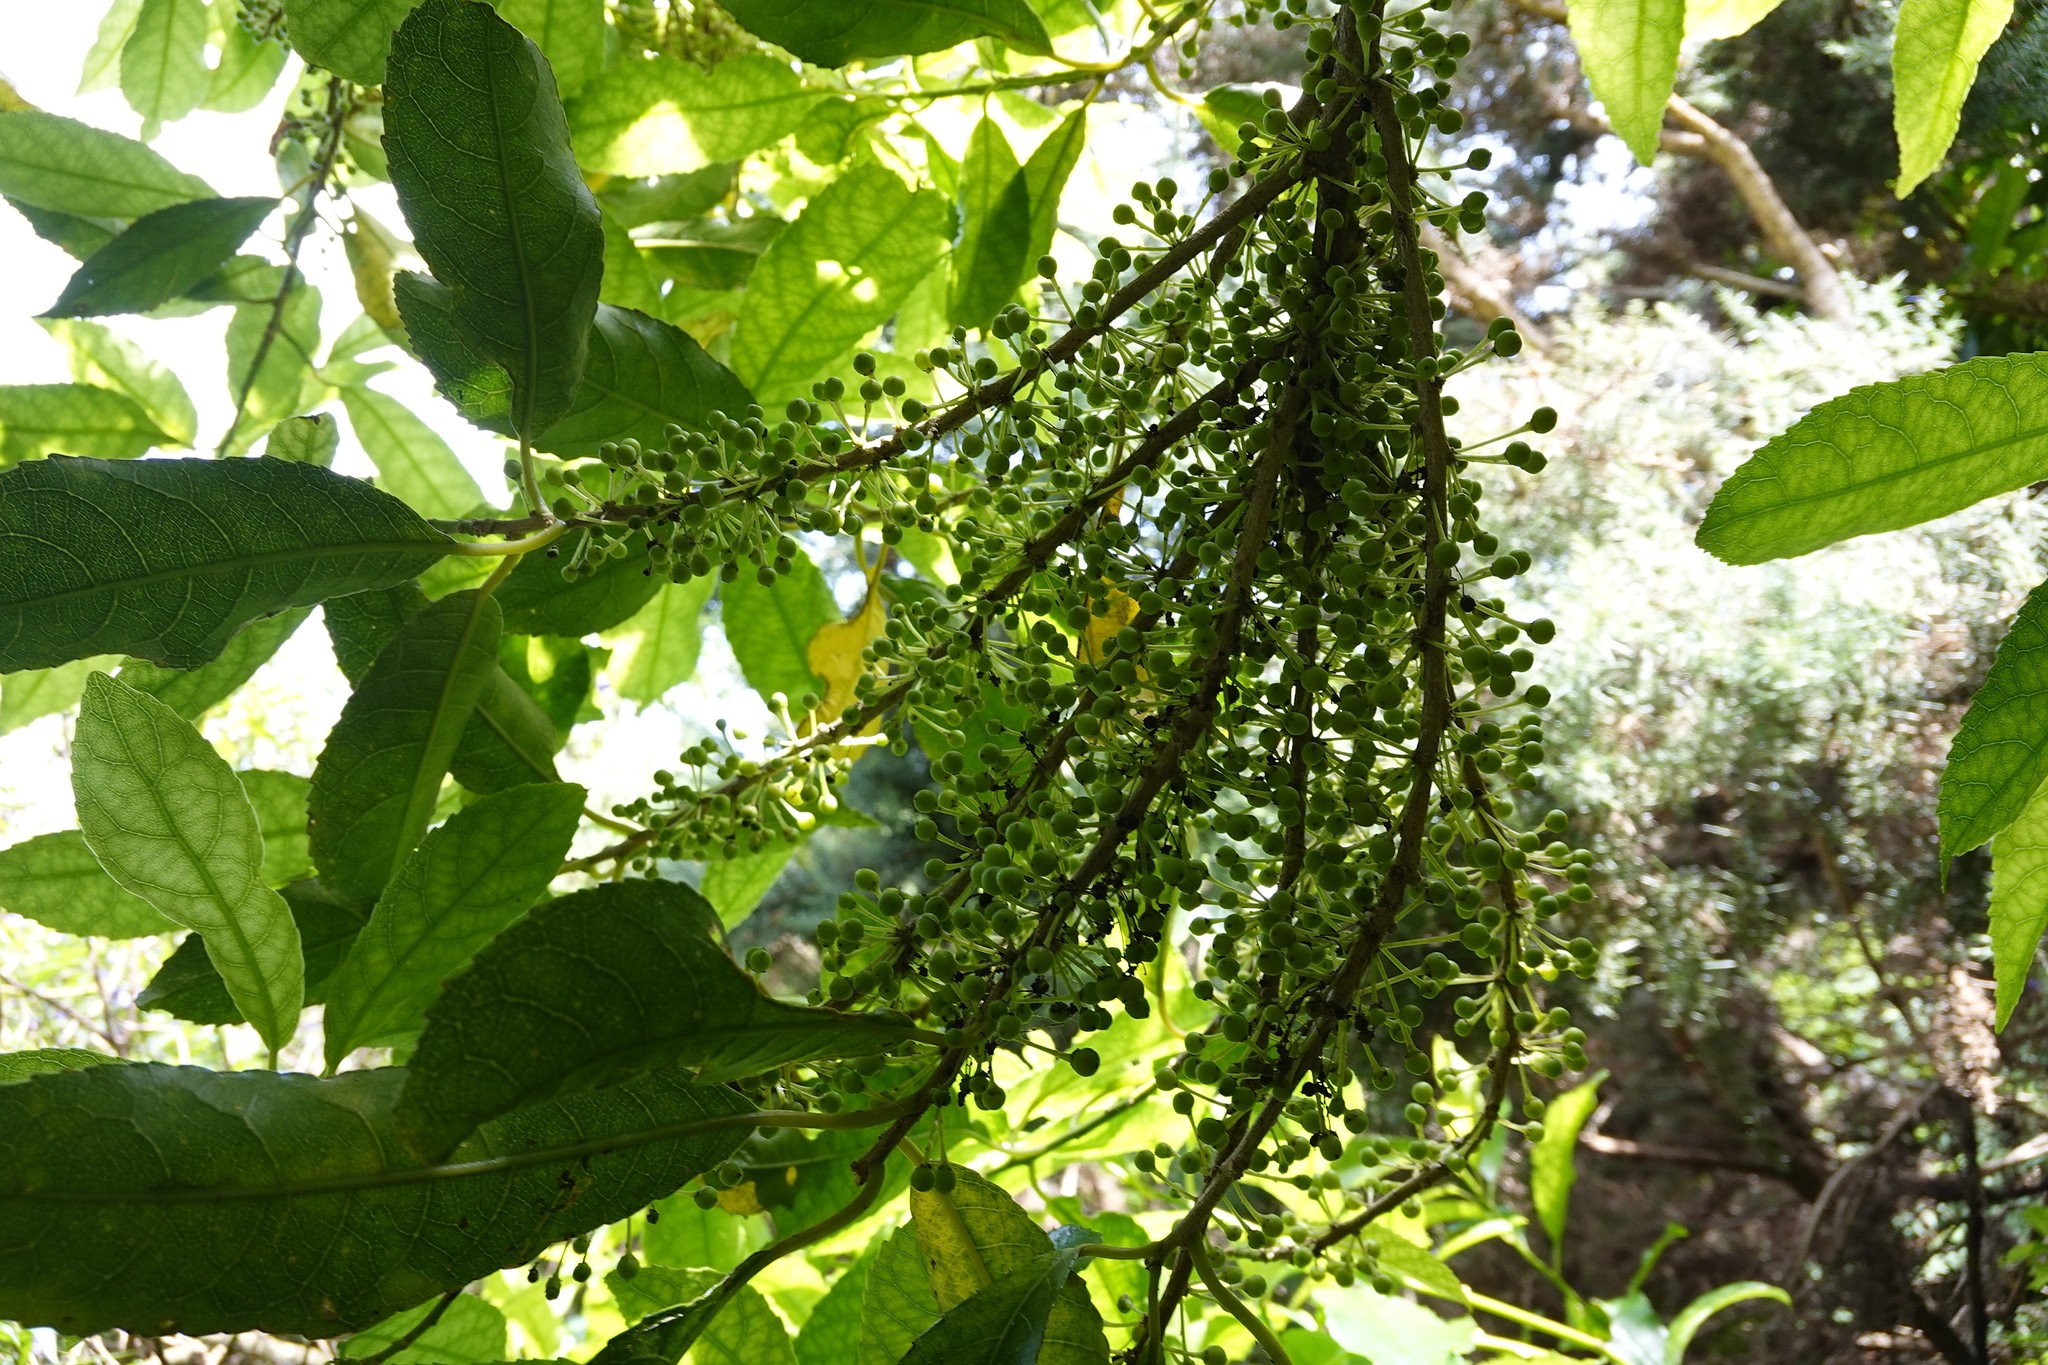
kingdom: Plantae
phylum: Tracheophyta
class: Magnoliopsida
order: Malpighiales
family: Violaceae
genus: Melicytus
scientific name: Melicytus ramiflorus
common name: Mahoe
